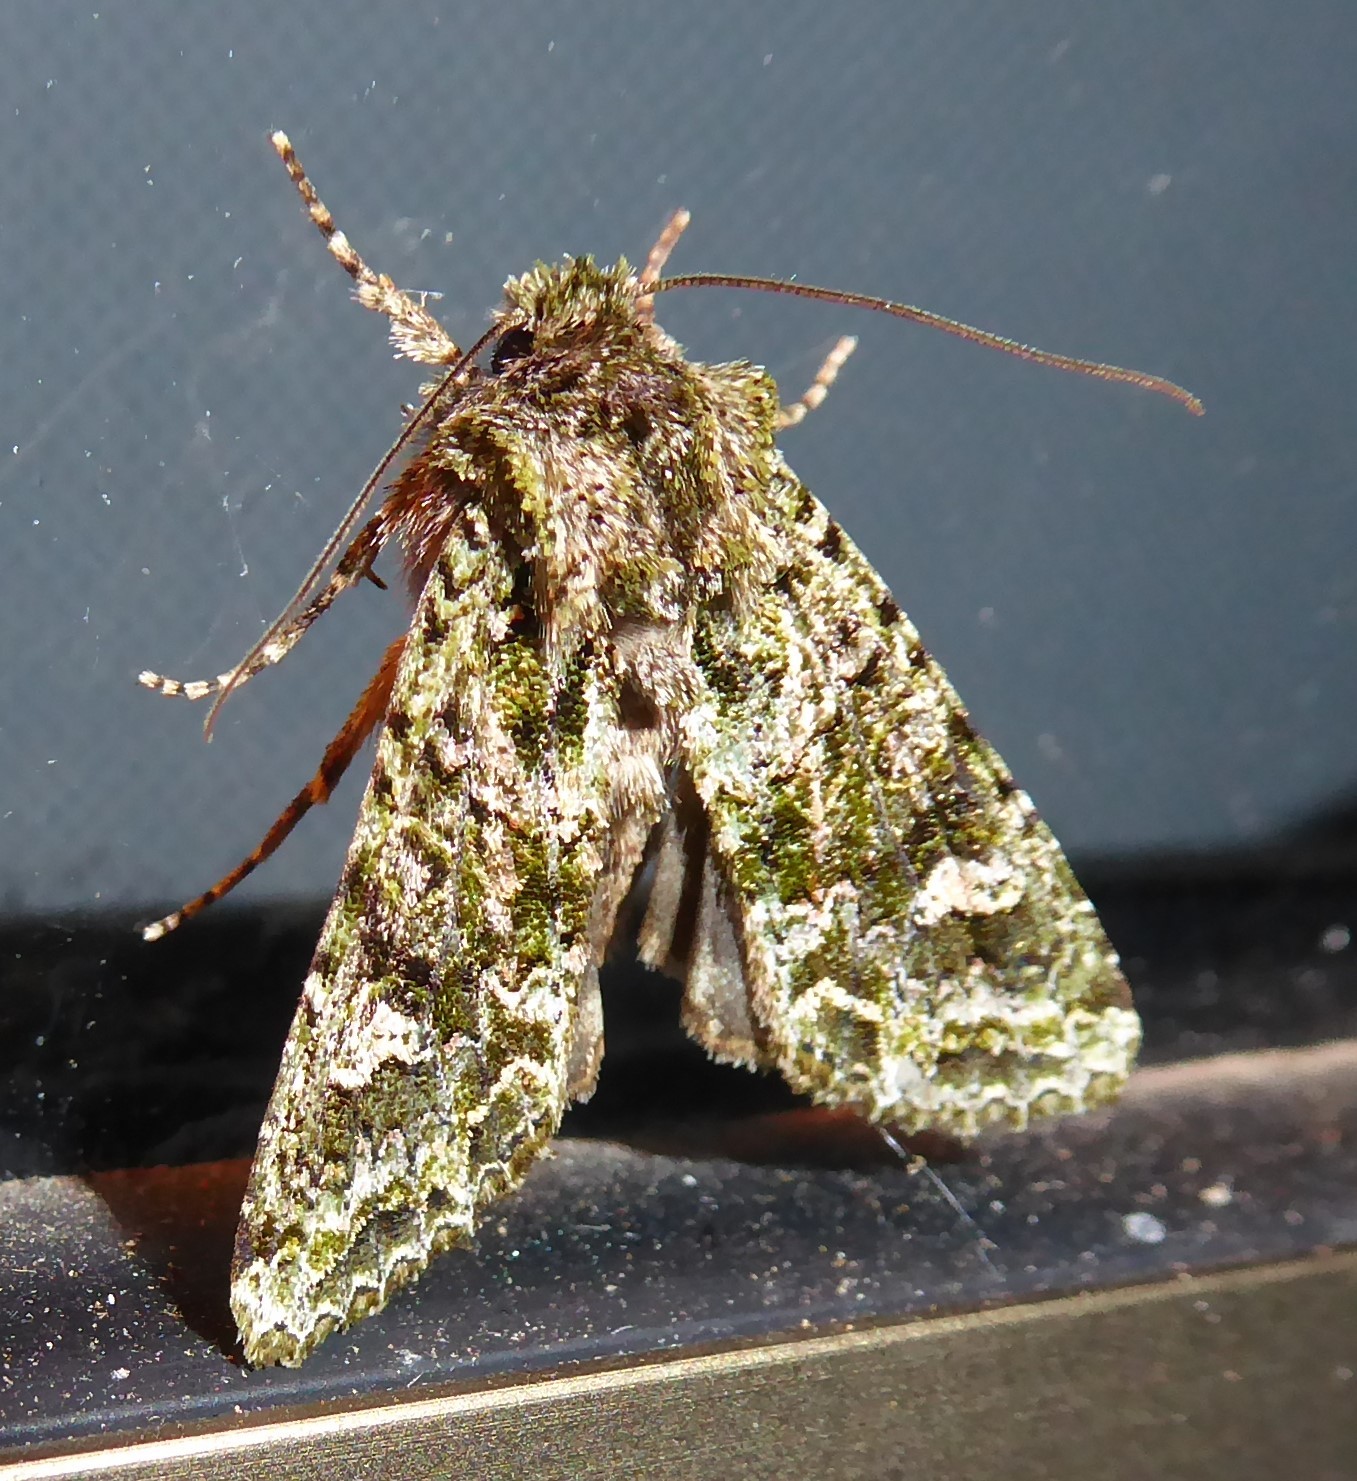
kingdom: Animalia
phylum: Arthropoda
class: Insecta
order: Lepidoptera
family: Noctuidae
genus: Ichneutica
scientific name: Ichneutica
